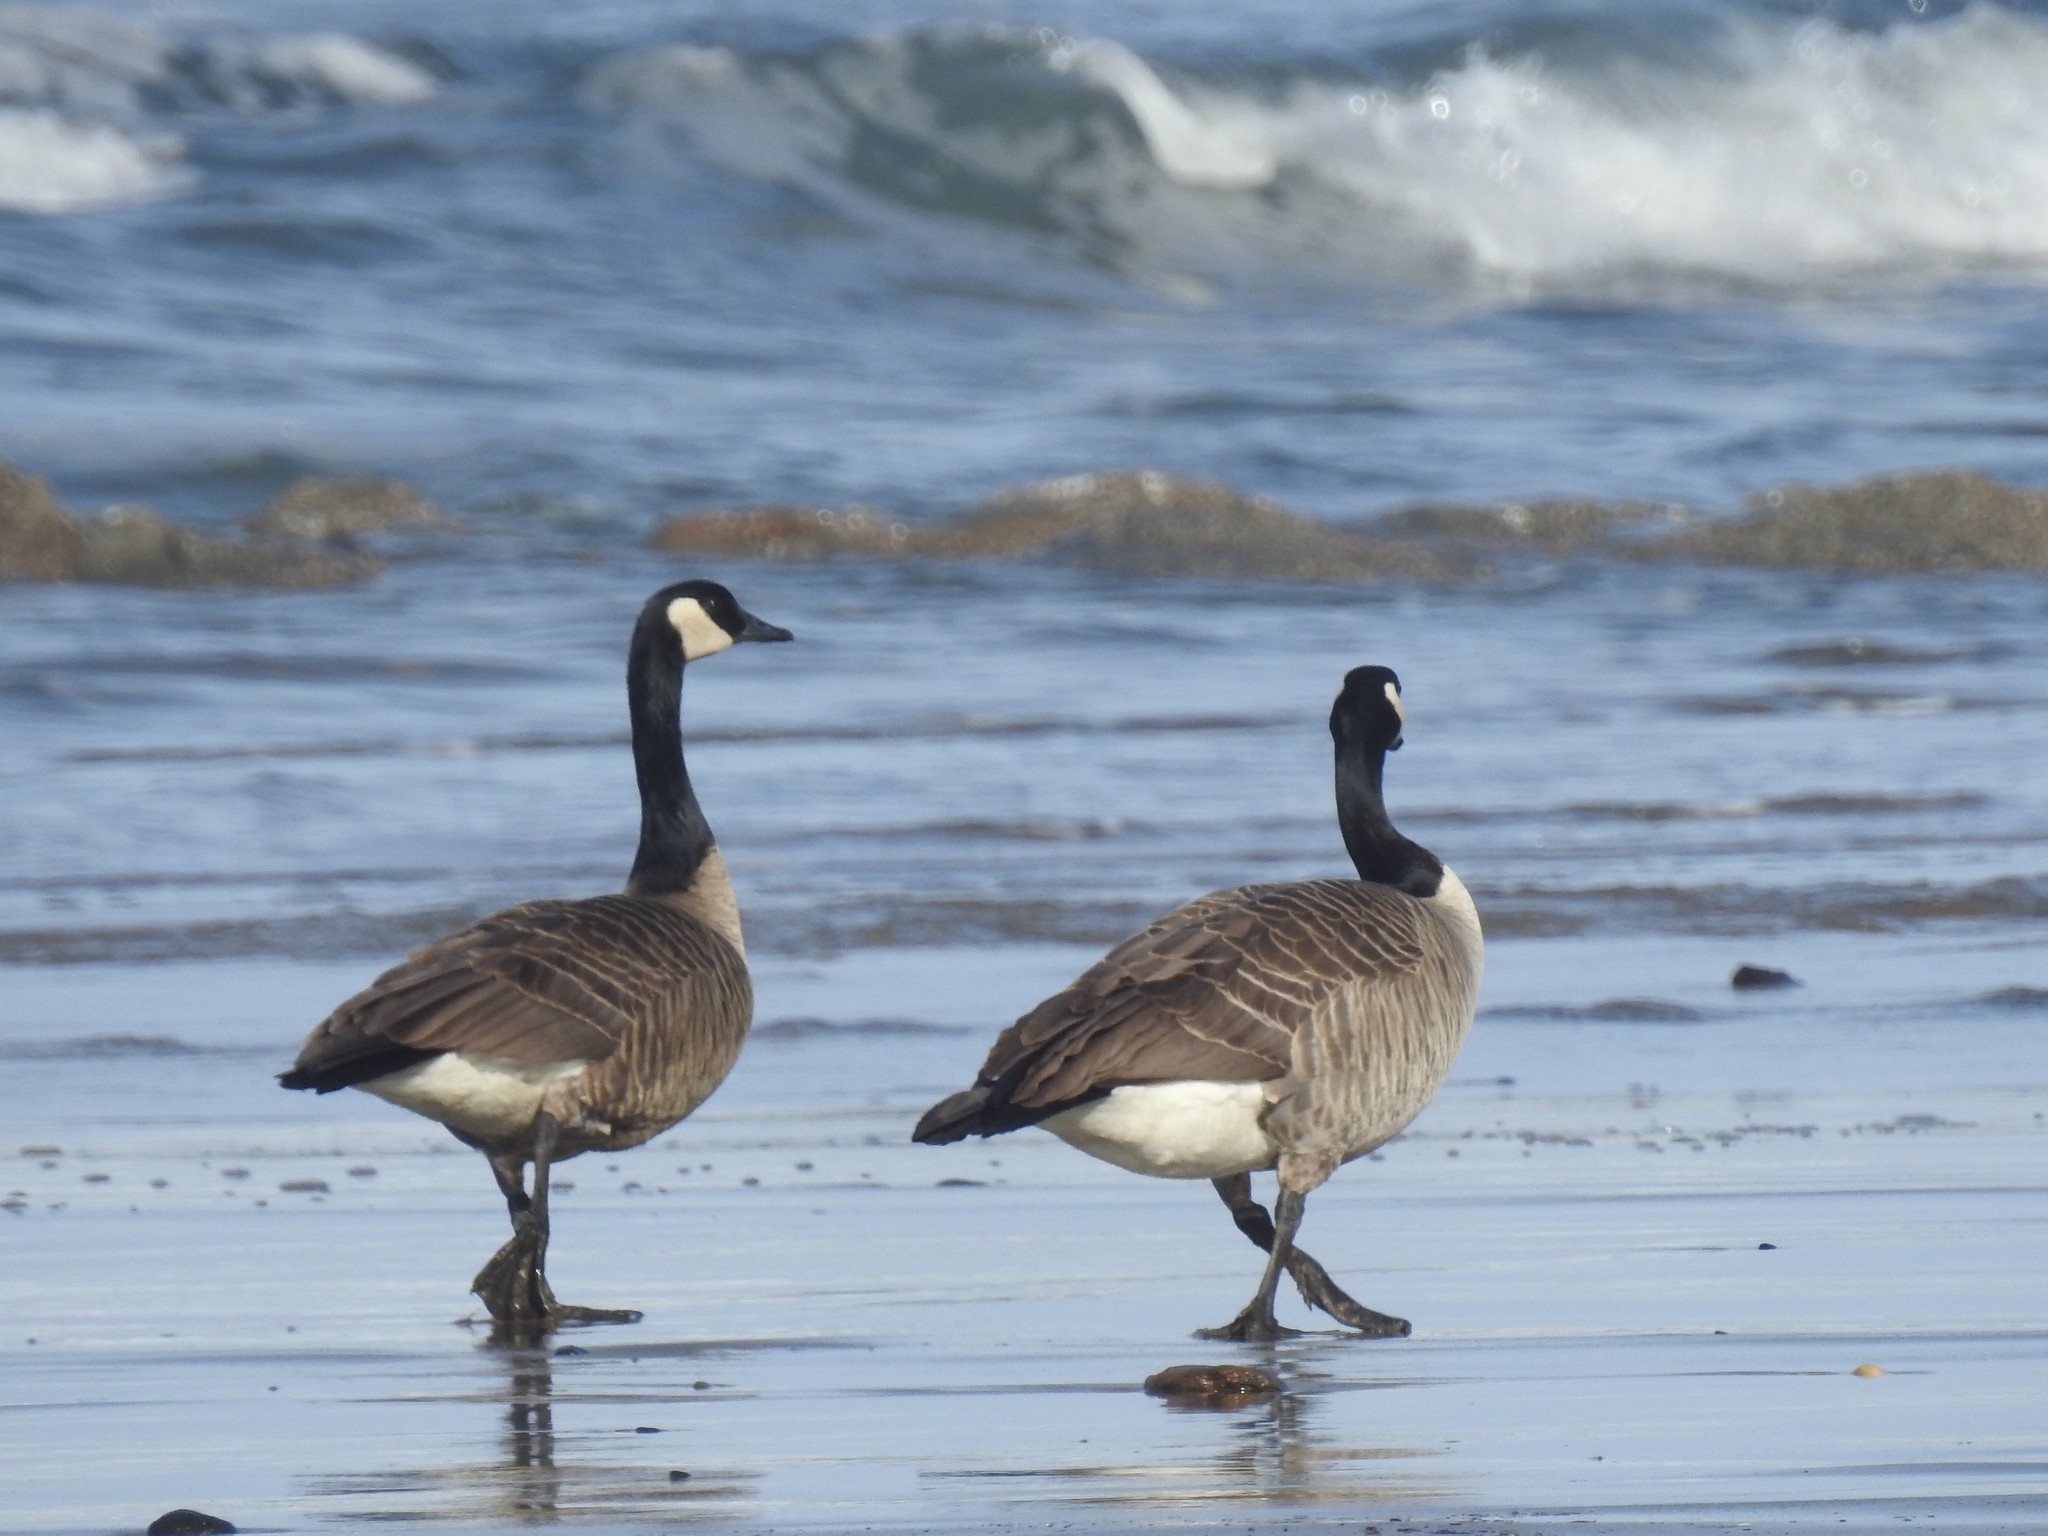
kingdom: Animalia
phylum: Chordata
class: Aves
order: Anseriformes
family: Anatidae
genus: Branta
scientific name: Branta canadensis
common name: Canada goose
